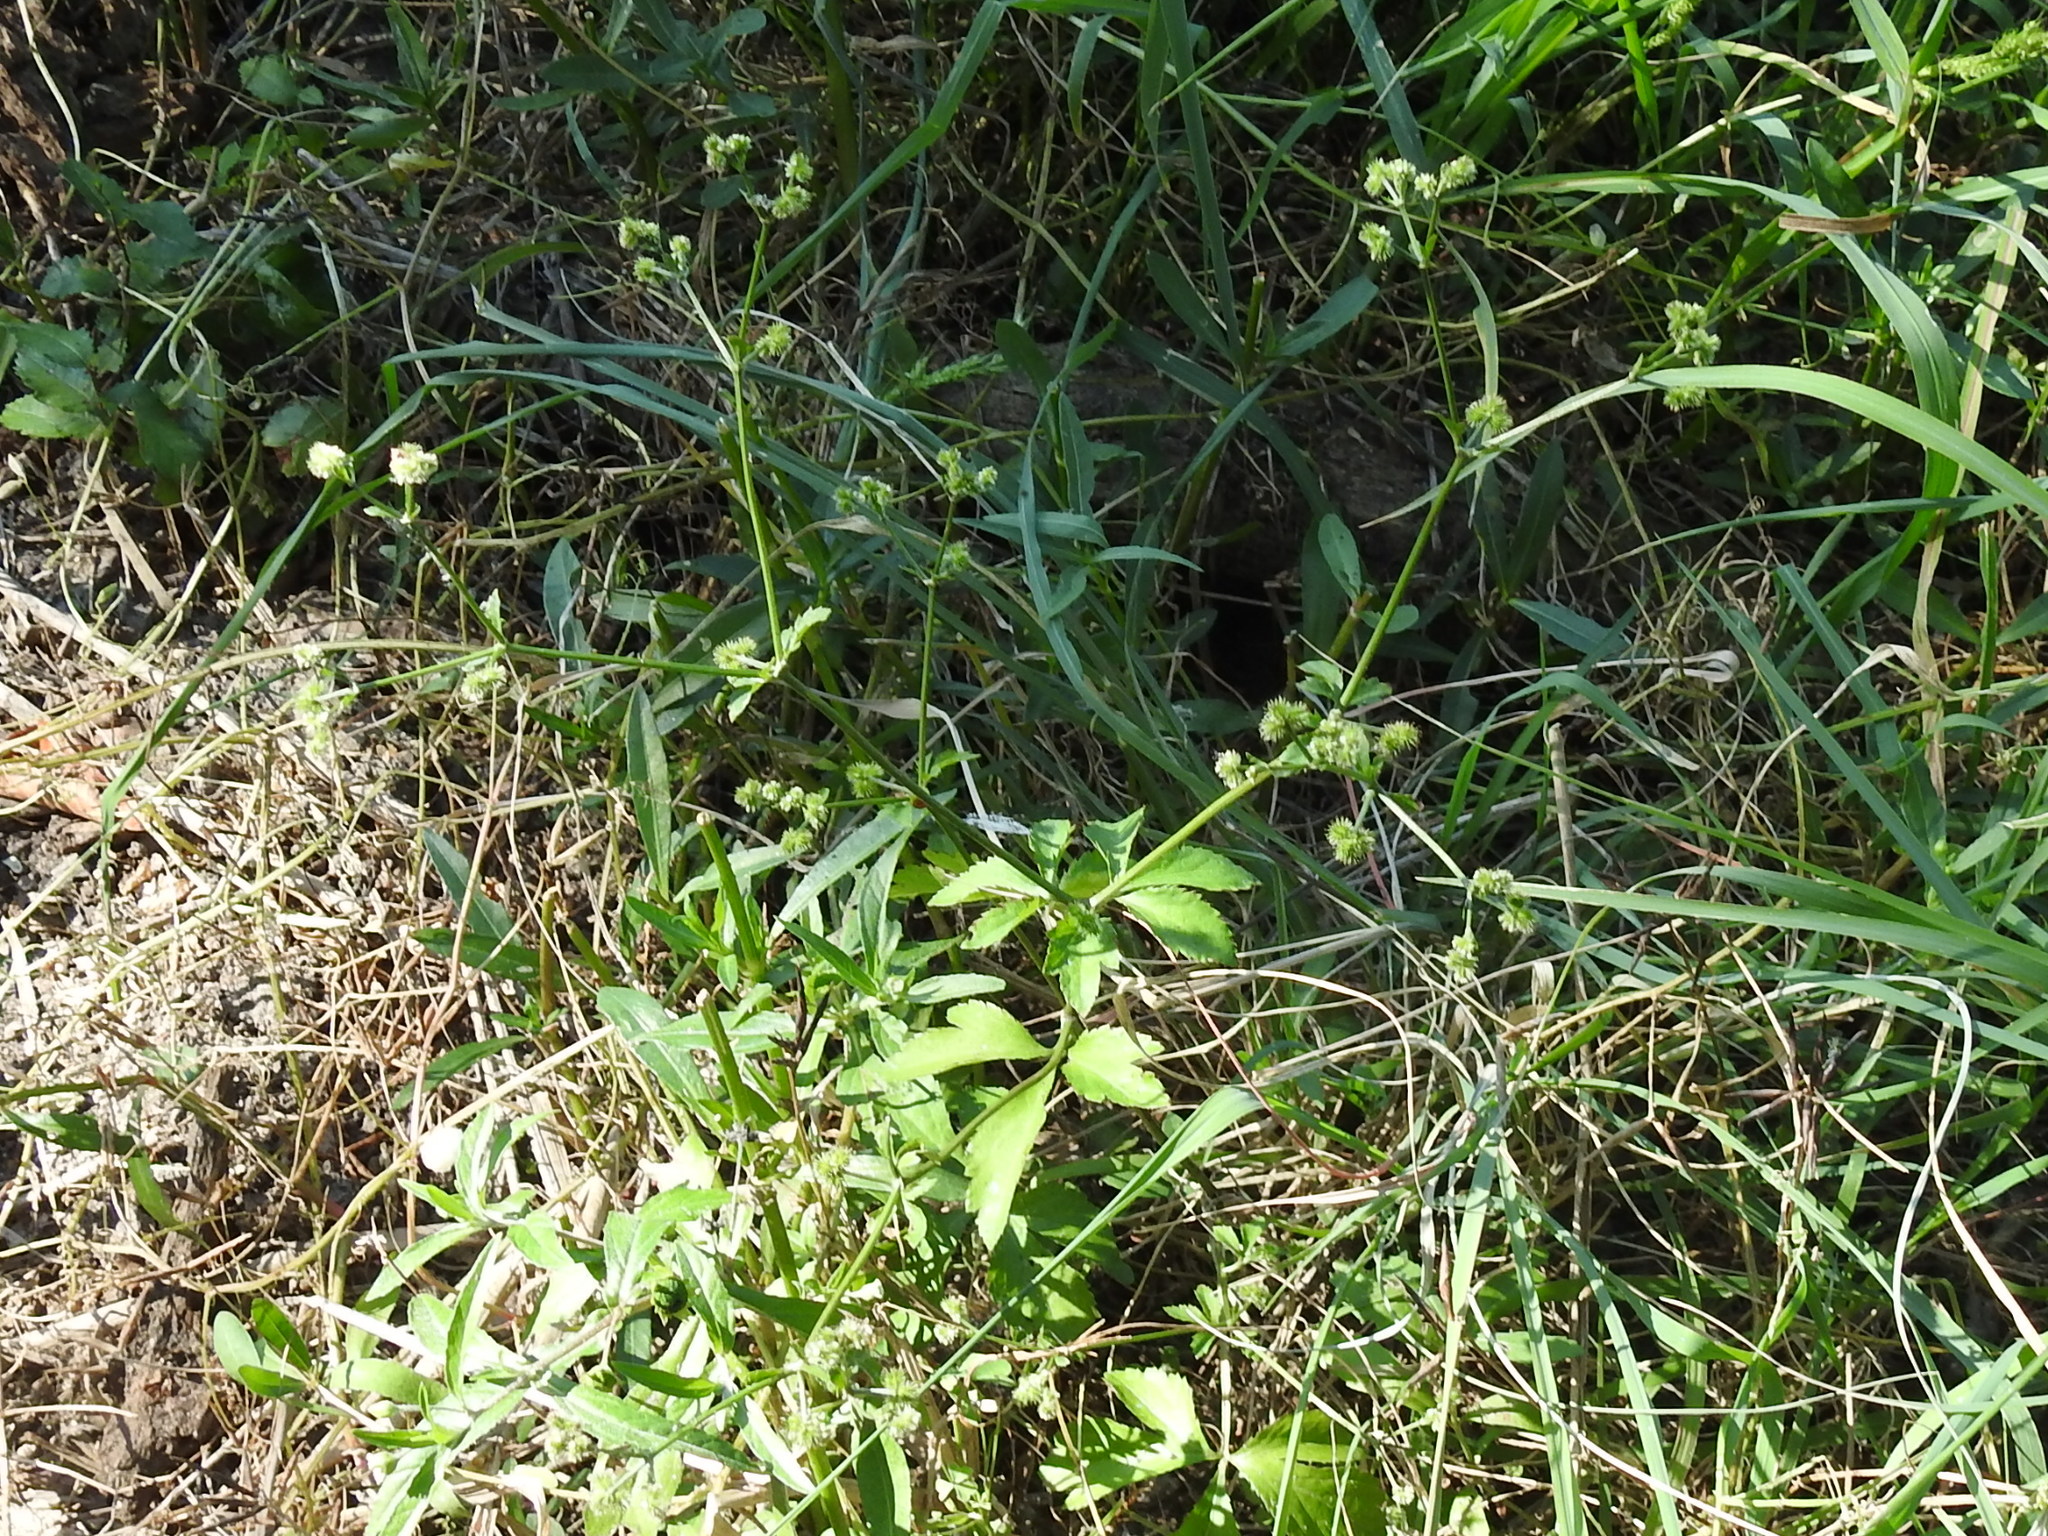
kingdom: Plantae
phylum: Tracheophyta
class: Magnoliopsida
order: Apiales
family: Apiaceae
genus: Sanicula
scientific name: Sanicula canadensis
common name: Canada sanicle
